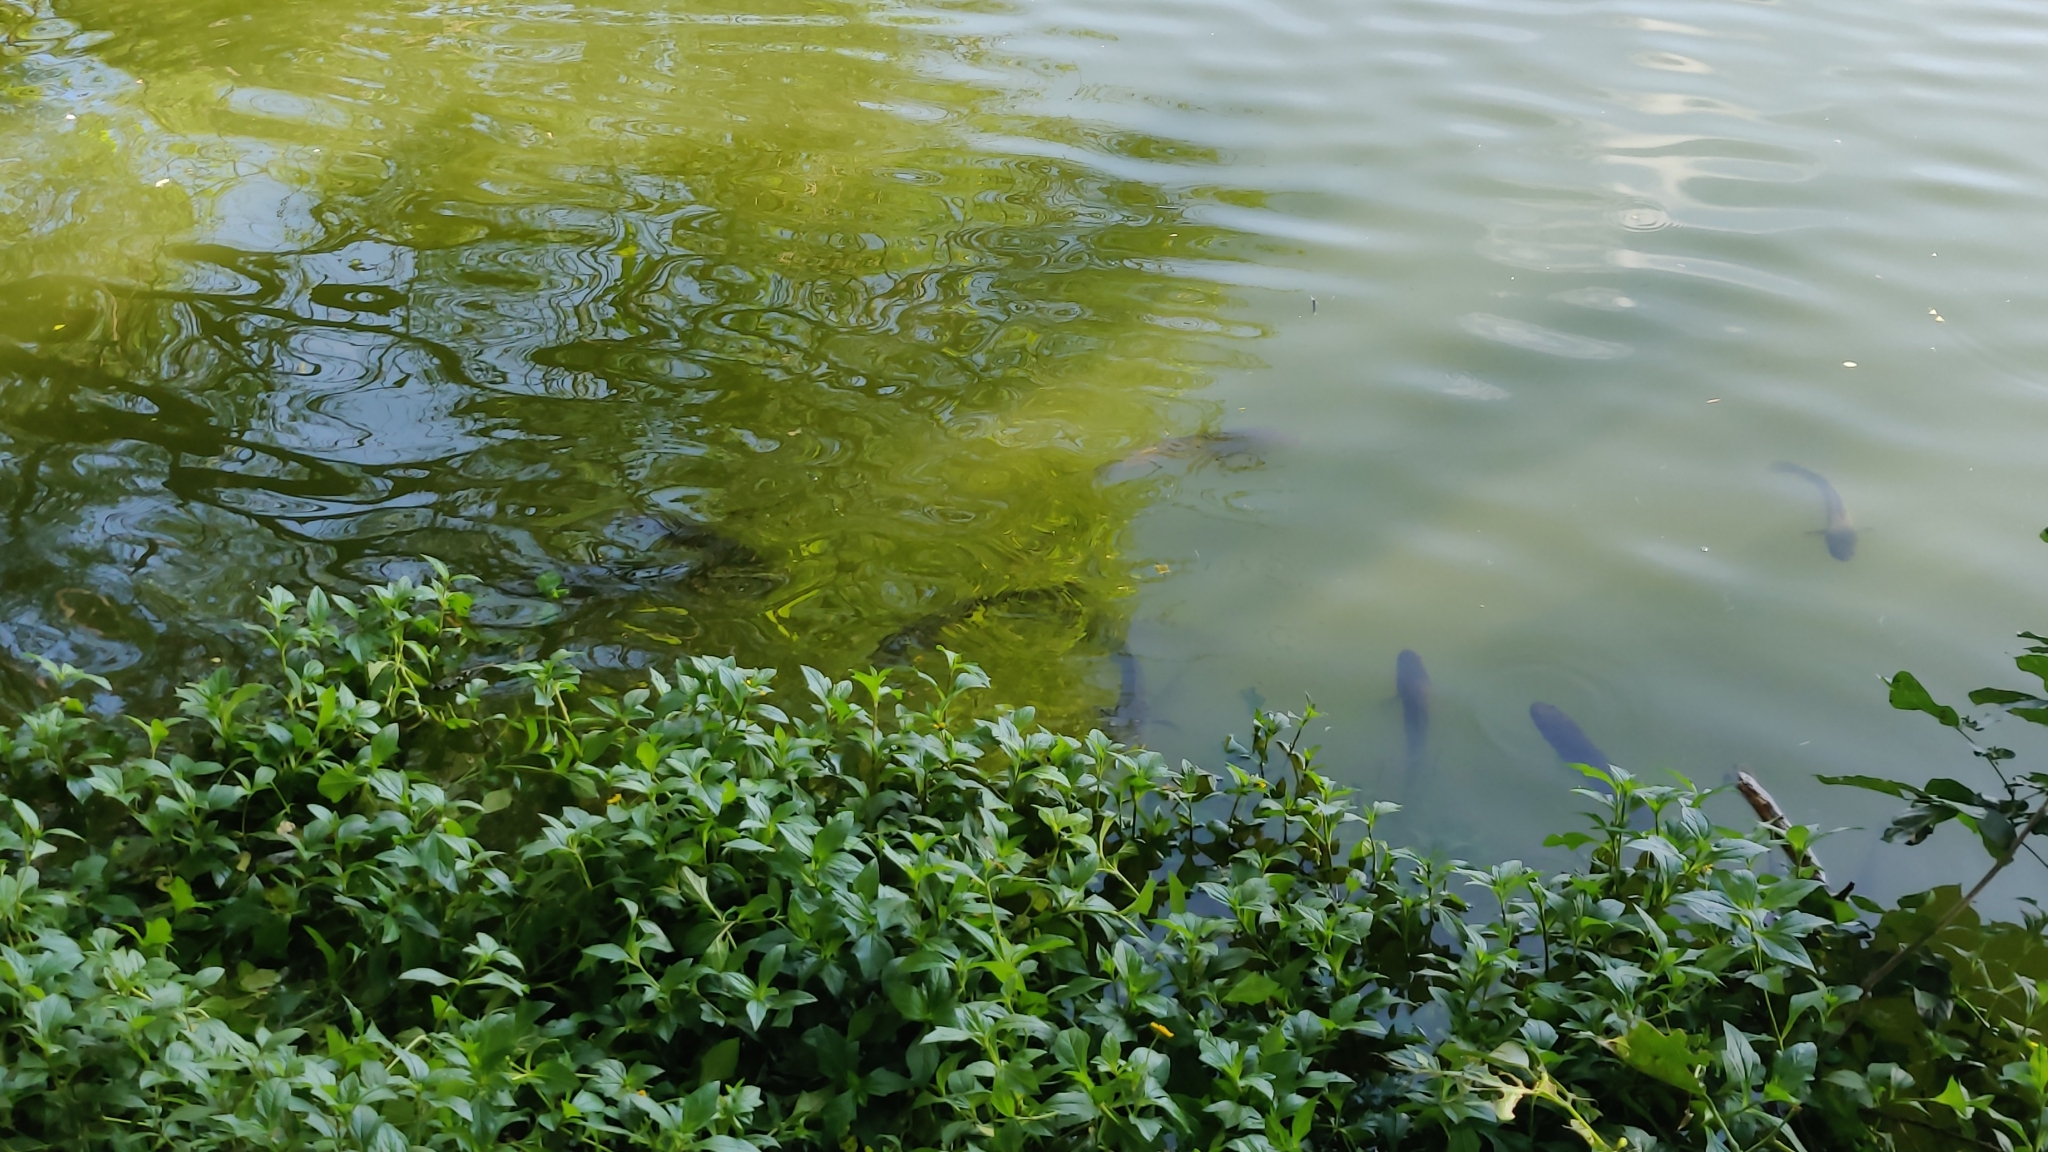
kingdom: Animalia
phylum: Chordata
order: Perciformes
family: Channidae
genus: Channa
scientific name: Channa striata
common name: Striped snakehead
